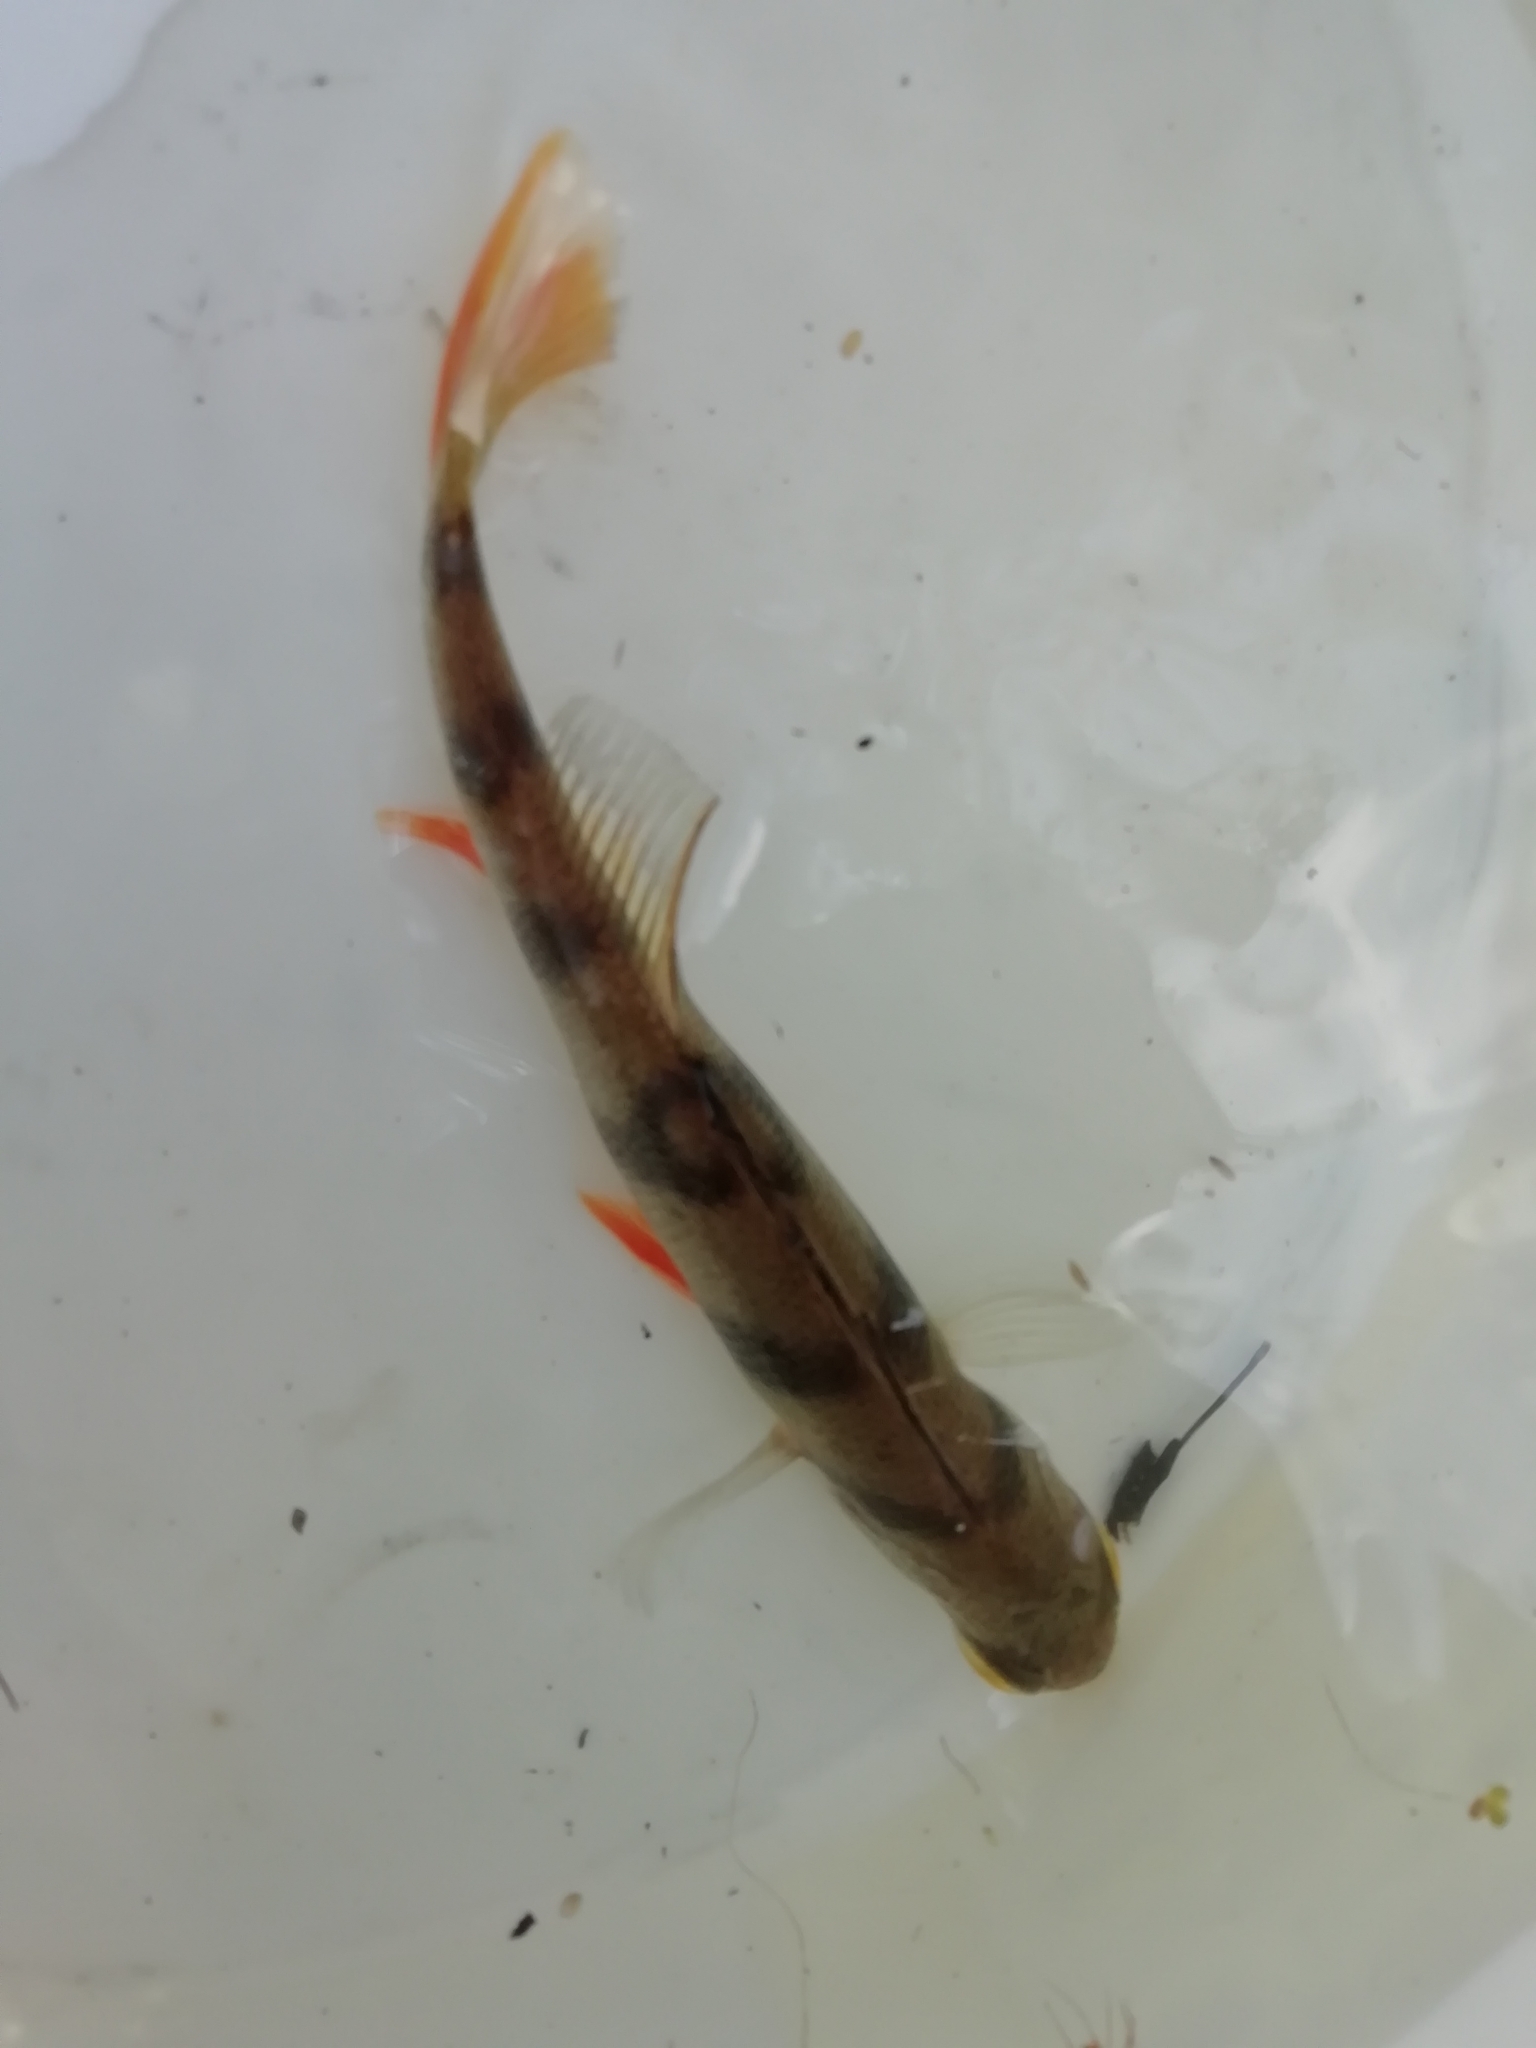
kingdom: Animalia
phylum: Chordata
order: Perciformes
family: Percidae
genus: Perca
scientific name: Perca fluviatilis
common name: Perch
